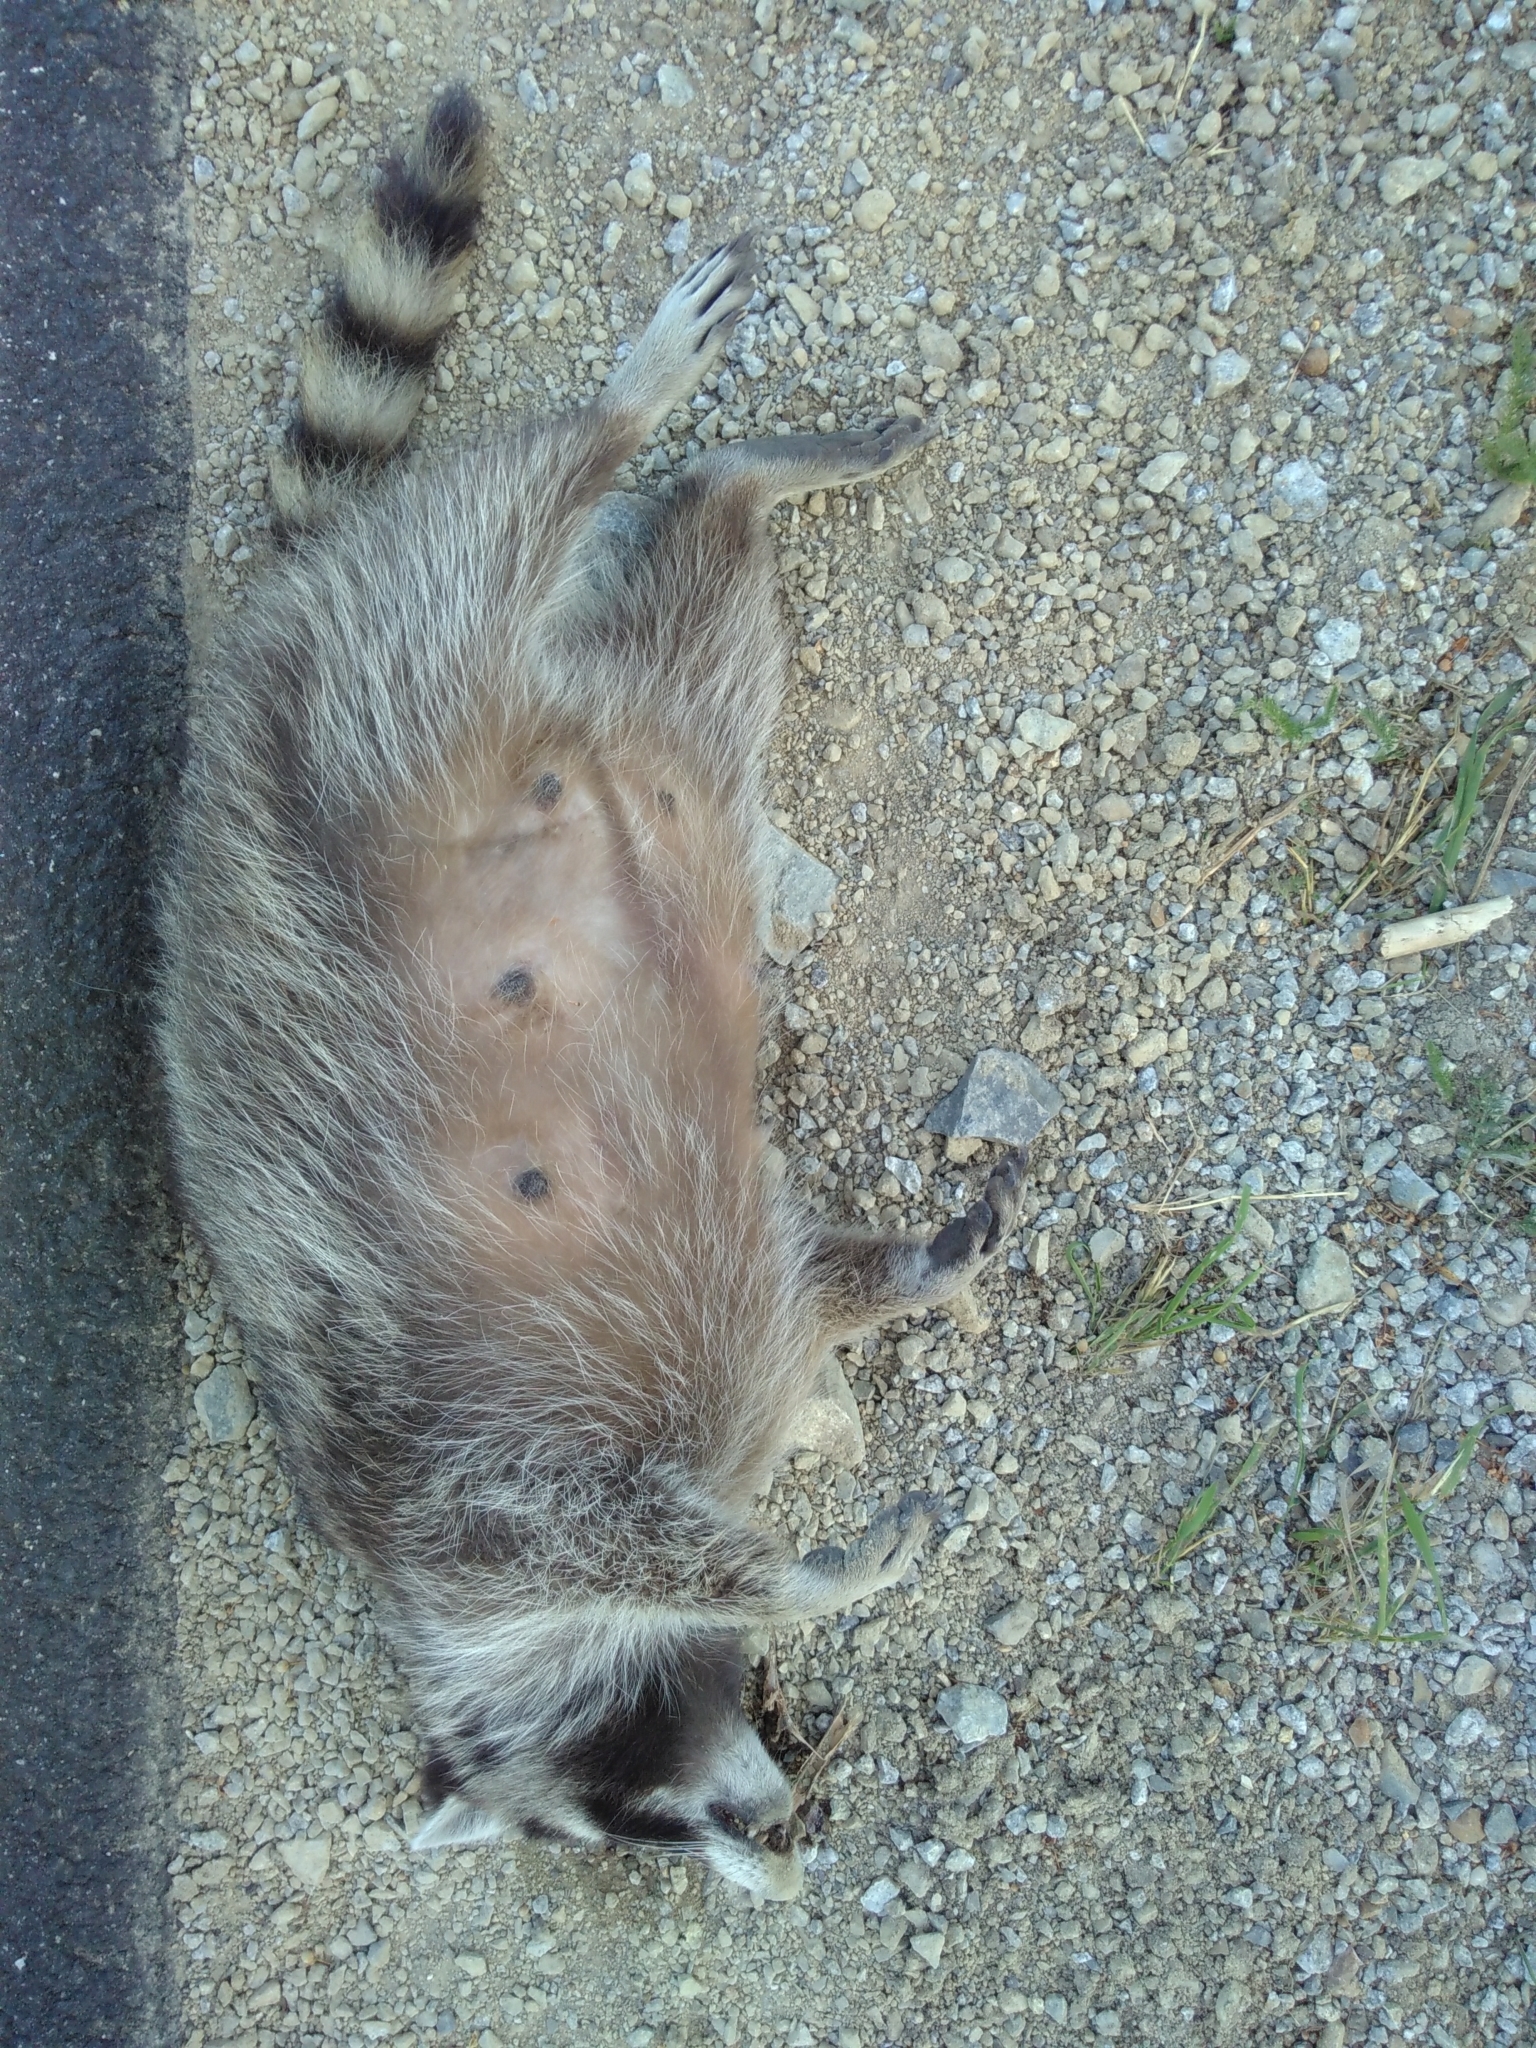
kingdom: Animalia
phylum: Chordata
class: Mammalia
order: Carnivora
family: Procyonidae
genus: Procyon
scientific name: Procyon lotor
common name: Raccoon
